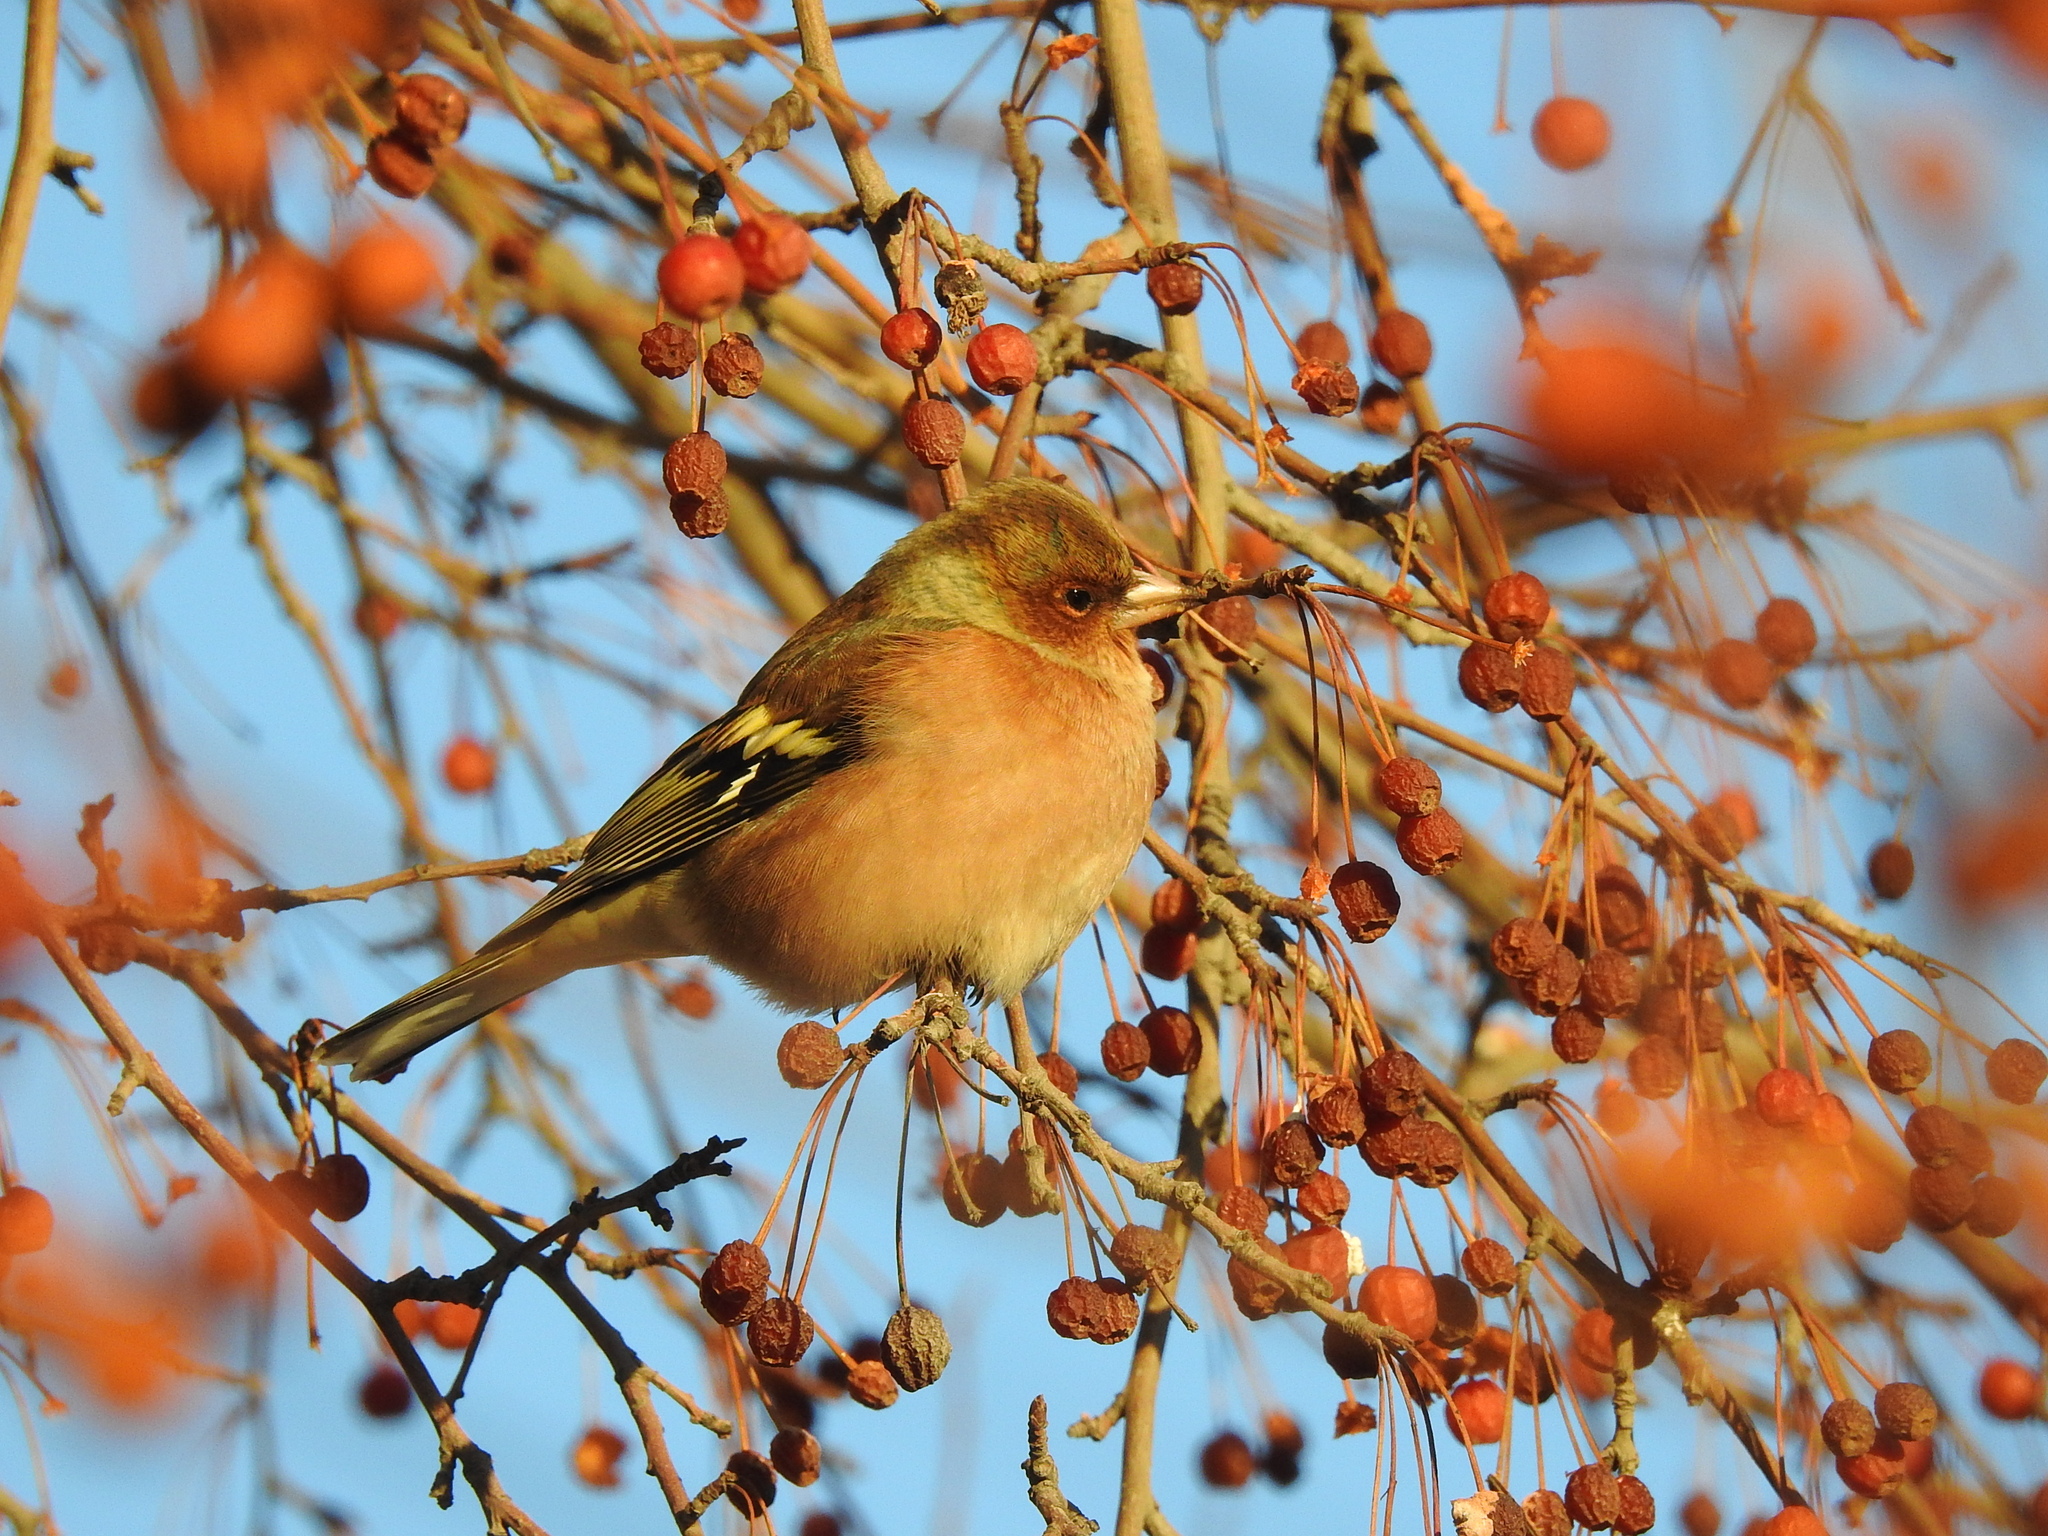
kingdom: Animalia
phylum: Chordata
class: Aves
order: Passeriformes
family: Fringillidae
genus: Fringilla
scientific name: Fringilla coelebs
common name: Common chaffinch
